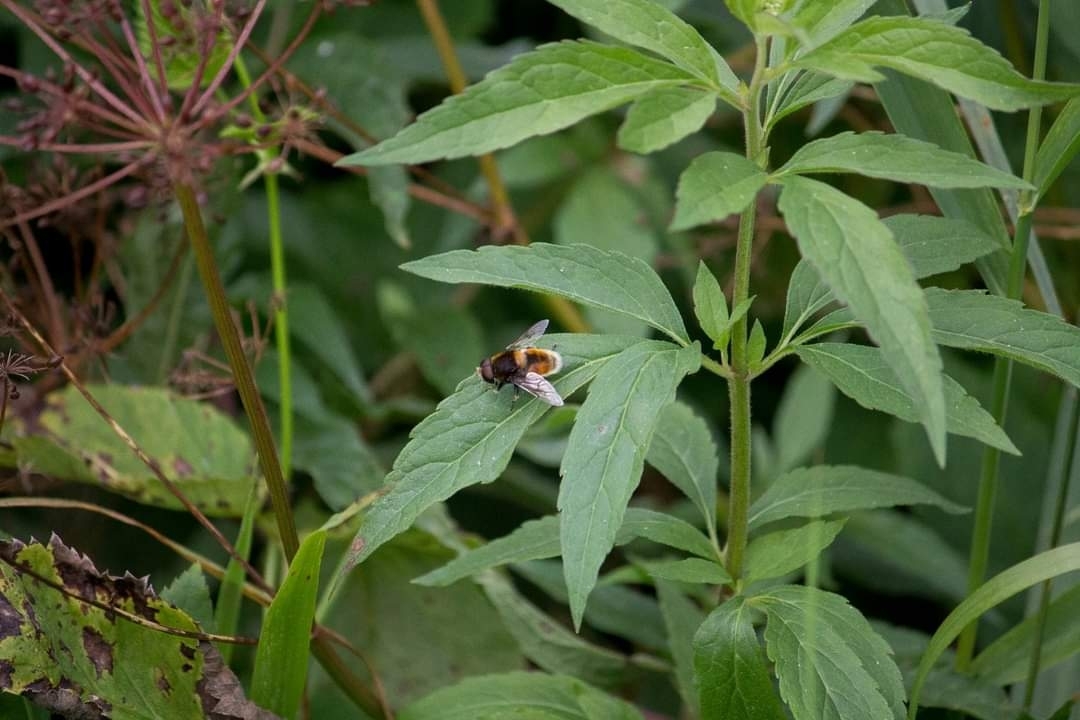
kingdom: Animalia
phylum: Arthropoda
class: Insecta
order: Diptera
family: Syrphidae
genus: Eristalis
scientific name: Eristalis intricaria
